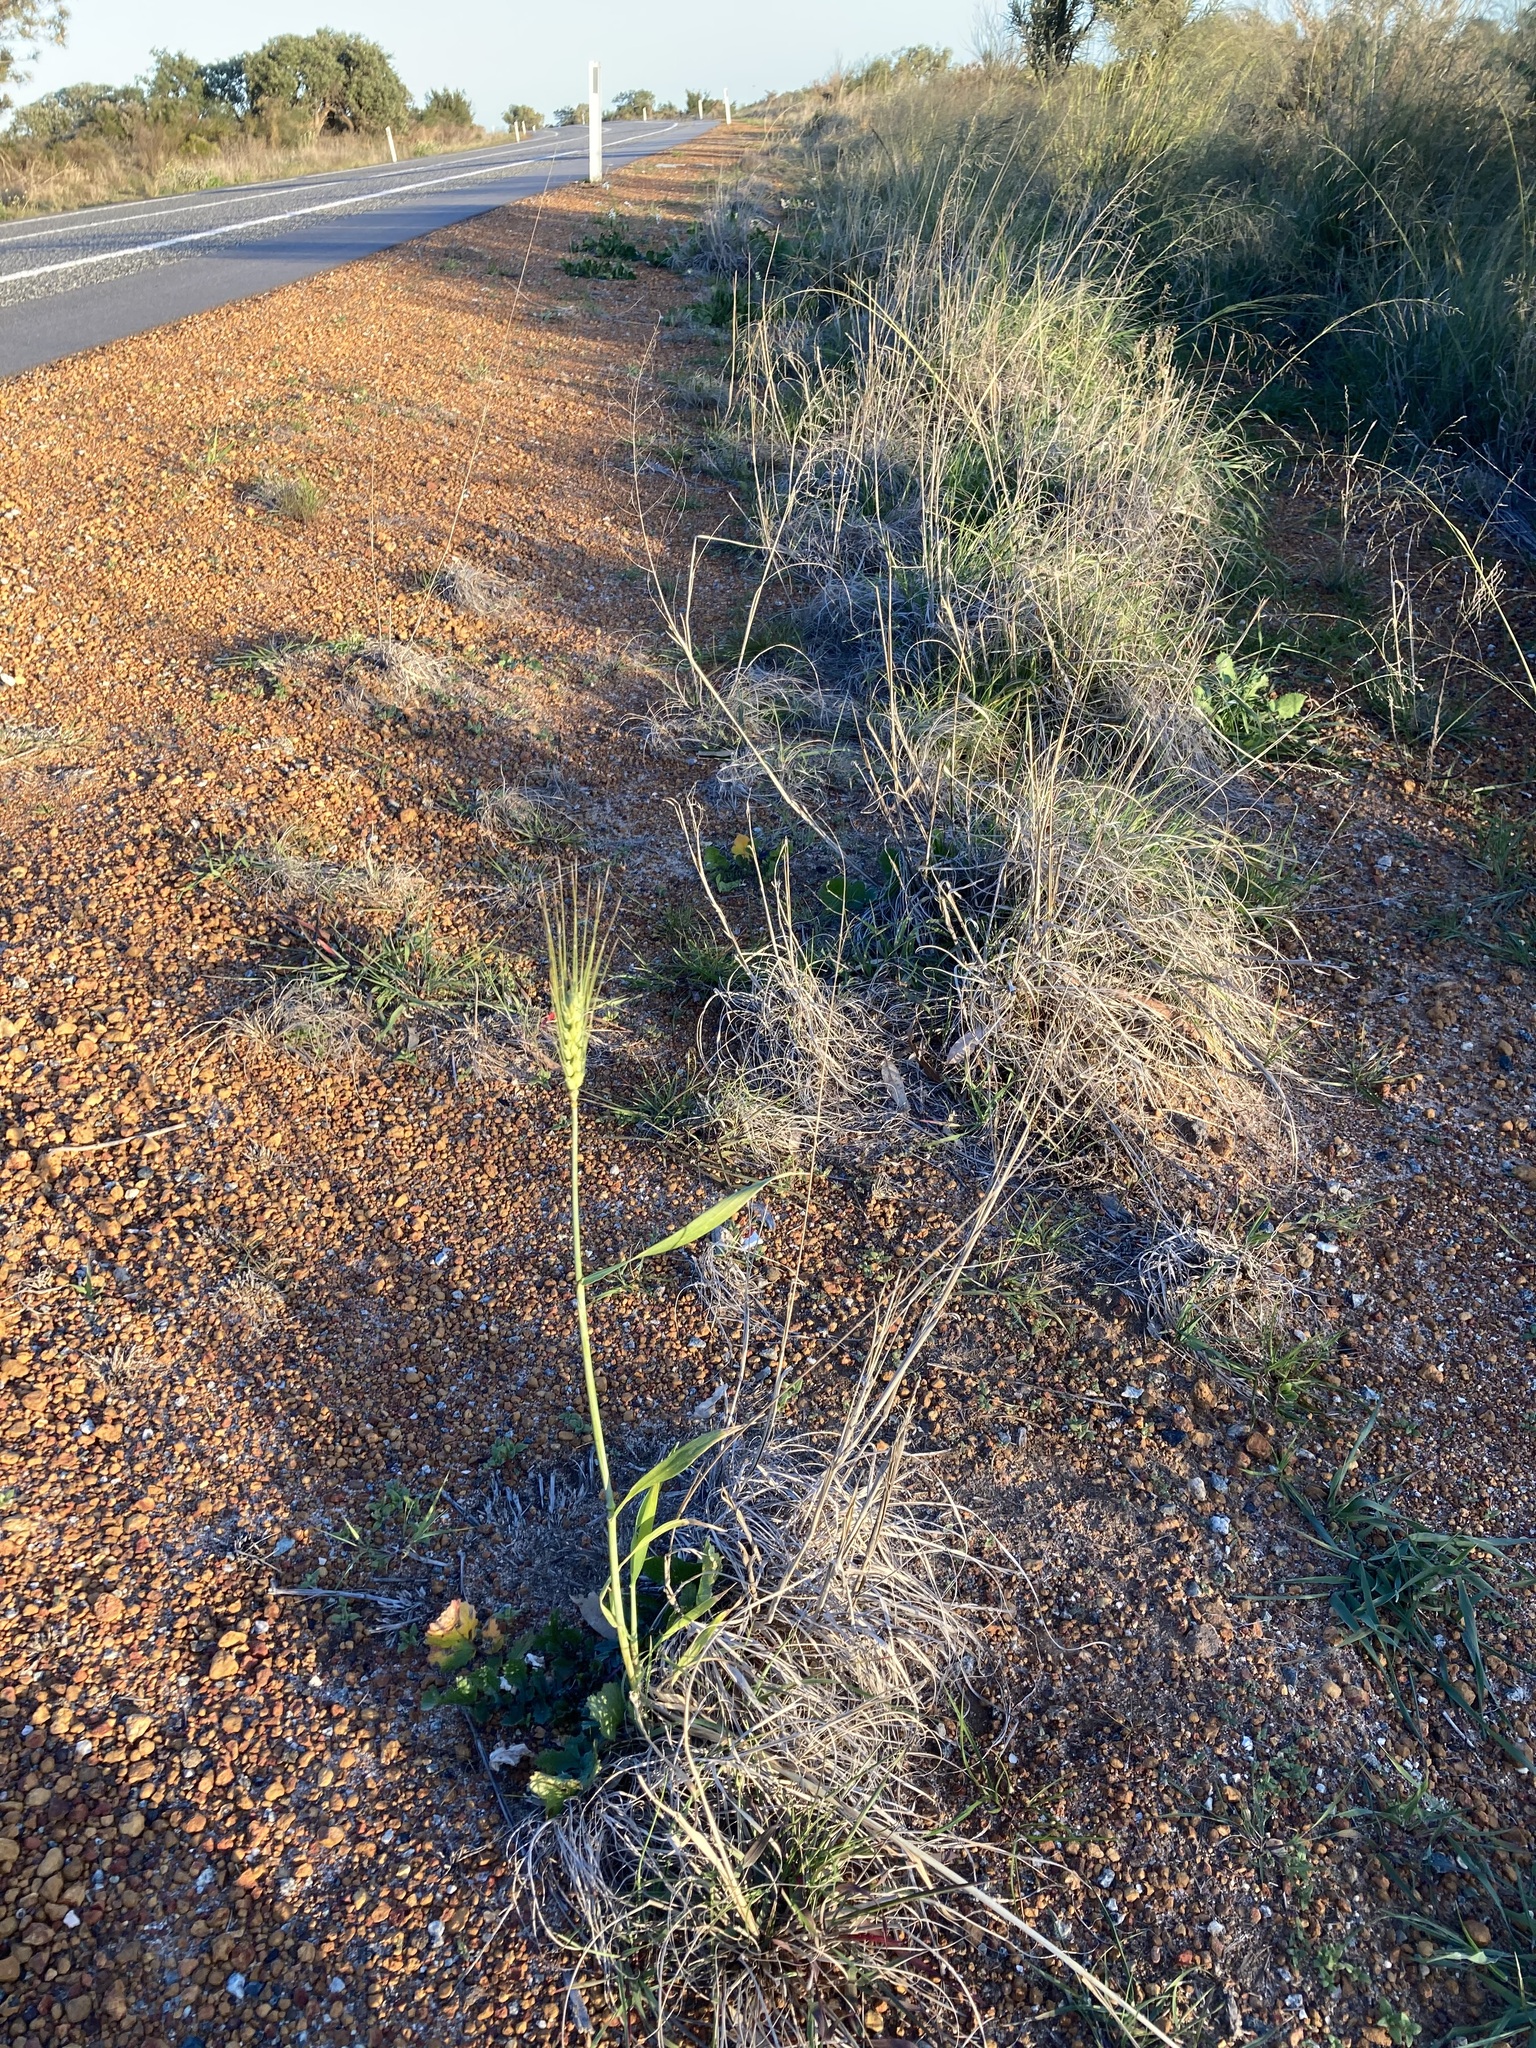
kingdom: Plantae
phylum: Tracheophyta
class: Liliopsida
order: Poales
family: Poaceae
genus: Triticum
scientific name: Triticum aestivum
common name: Common wheat
